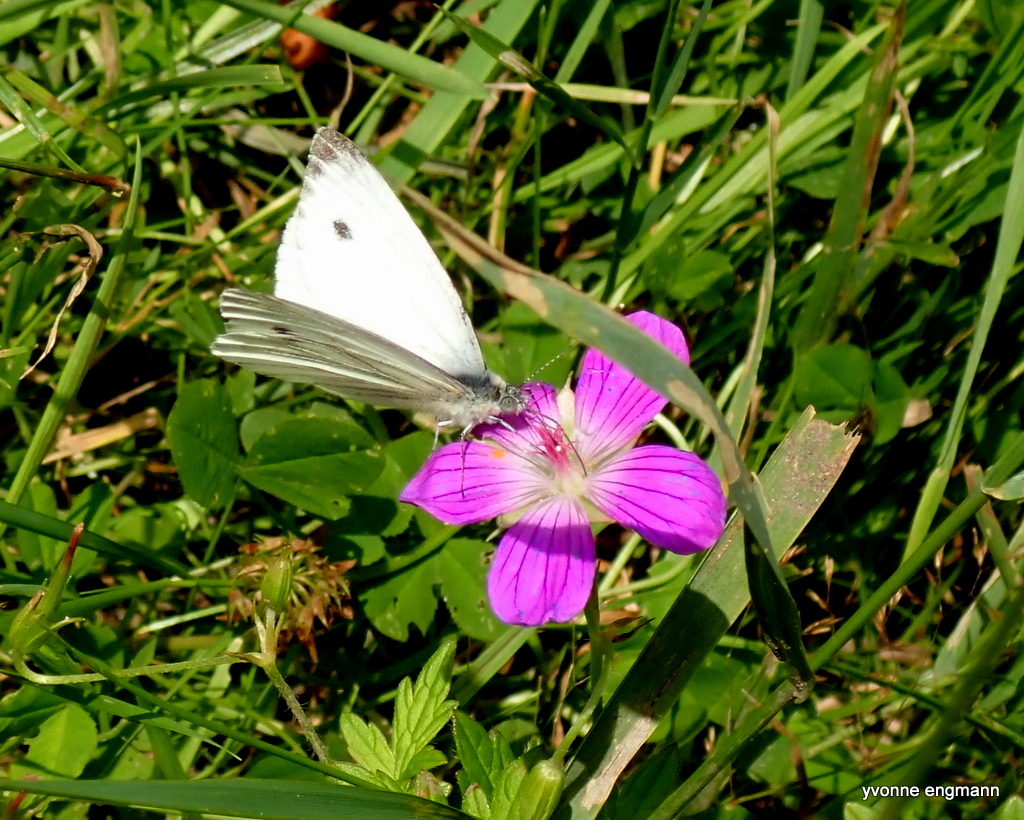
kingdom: Animalia
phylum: Arthropoda
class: Insecta
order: Lepidoptera
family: Pieridae
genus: Pieris
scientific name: Pieris napi
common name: Green-veined white
